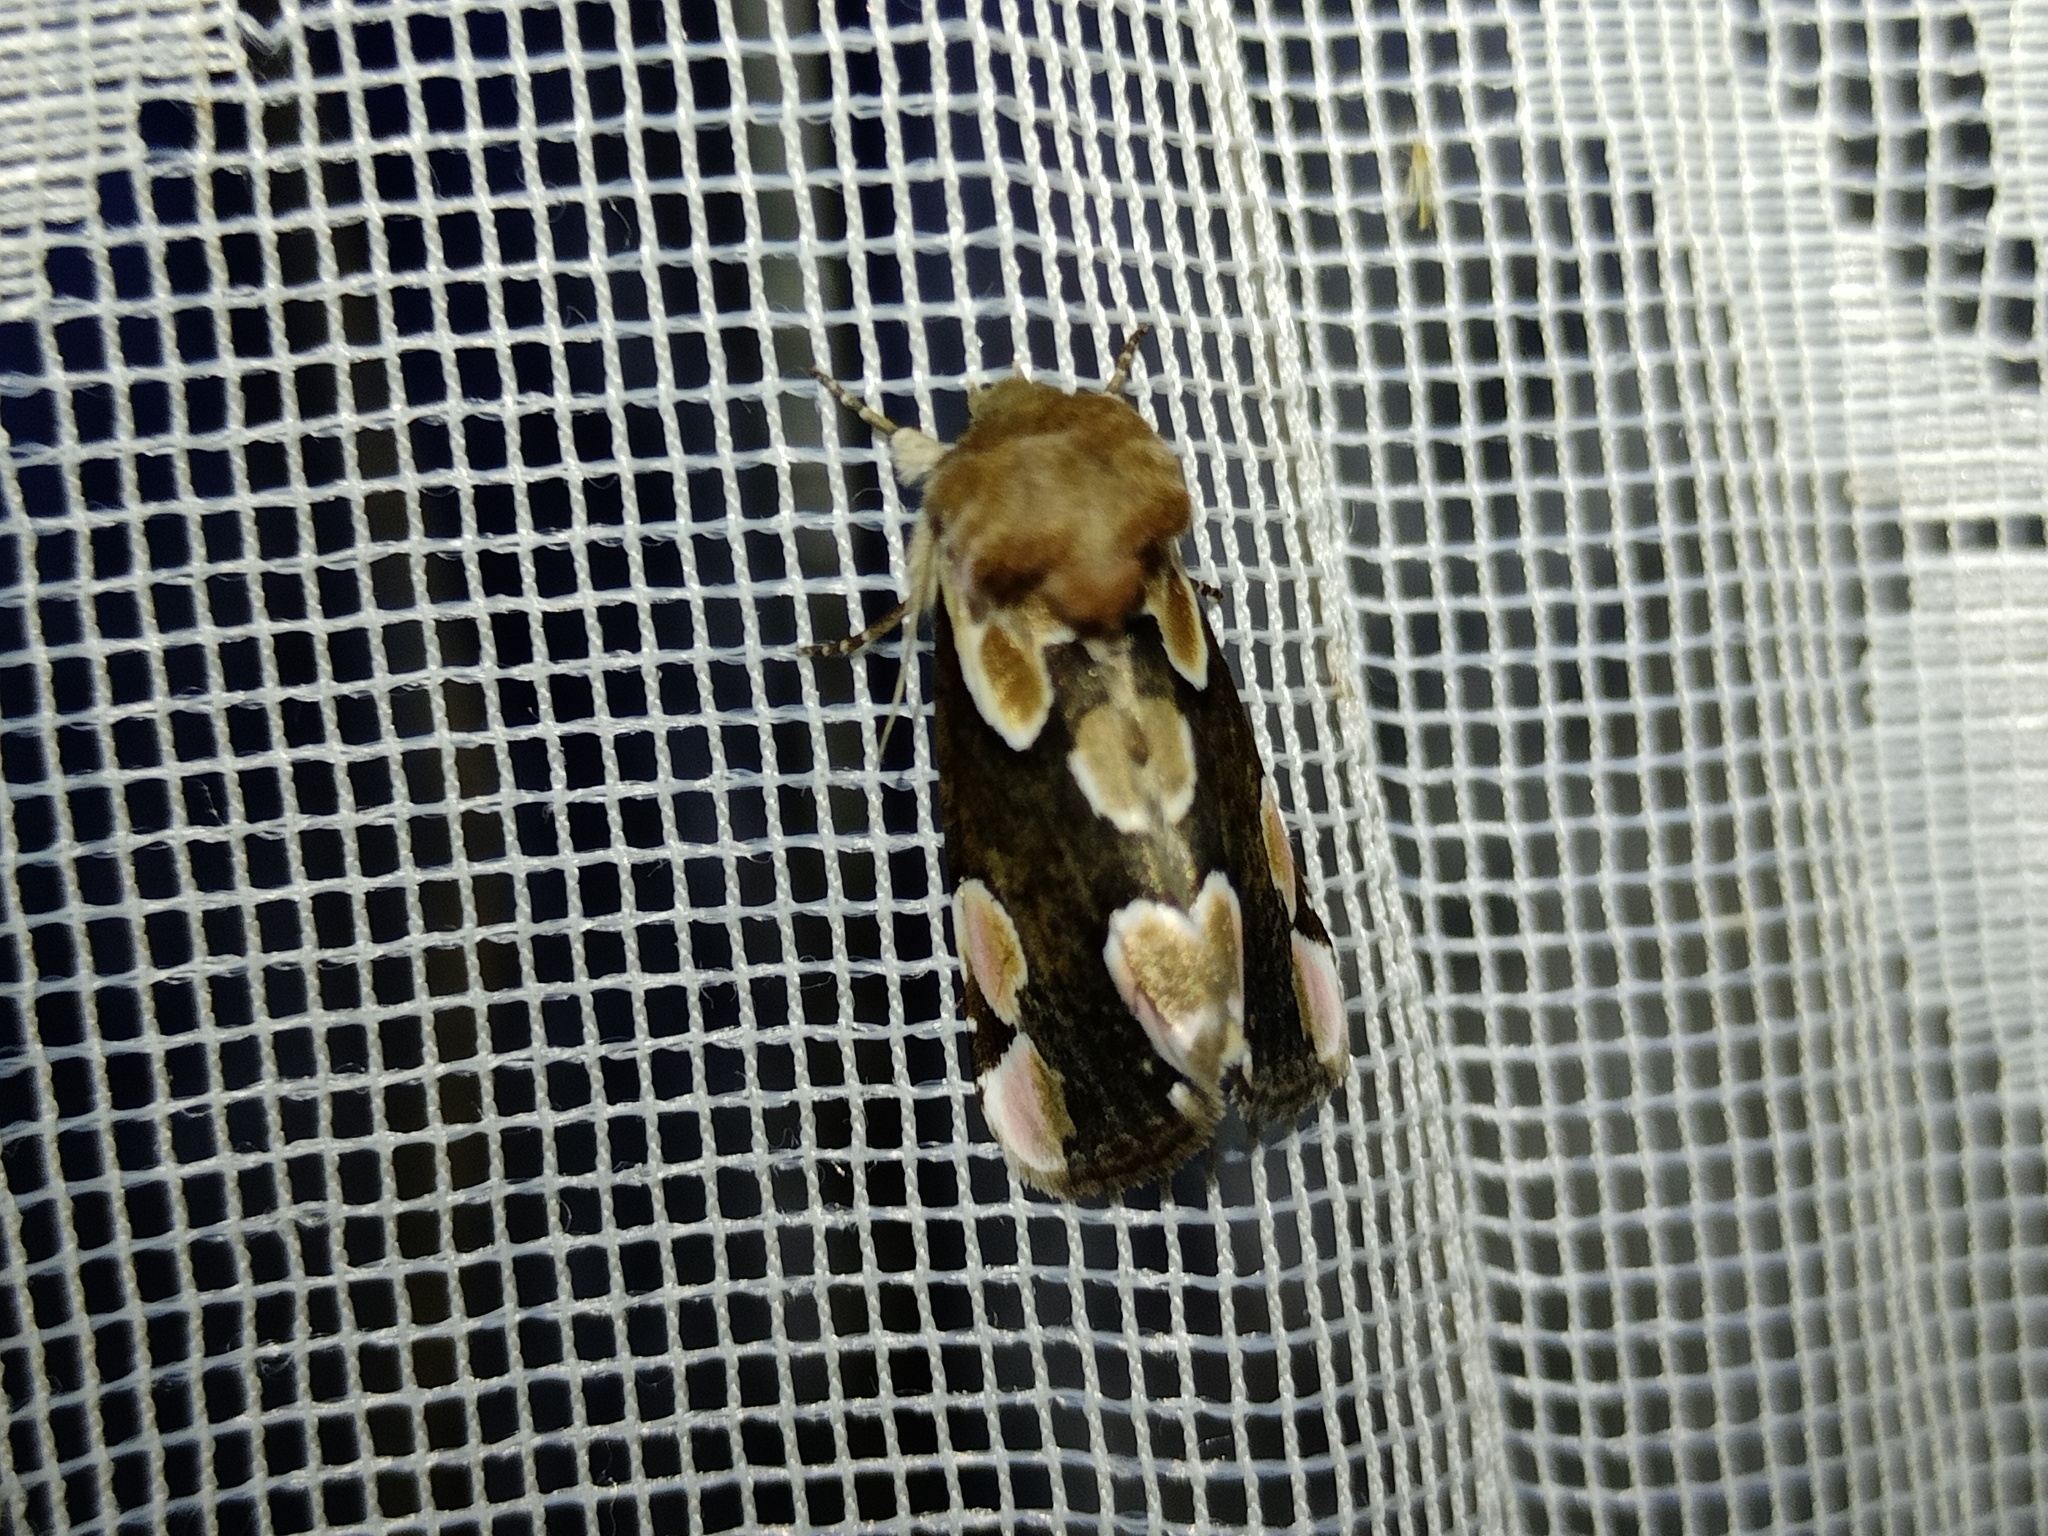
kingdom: Animalia
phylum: Arthropoda
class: Insecta
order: Lepidoptera
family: Drepanidae
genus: Thyatira
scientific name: Thyatira batis
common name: Peach blossom
